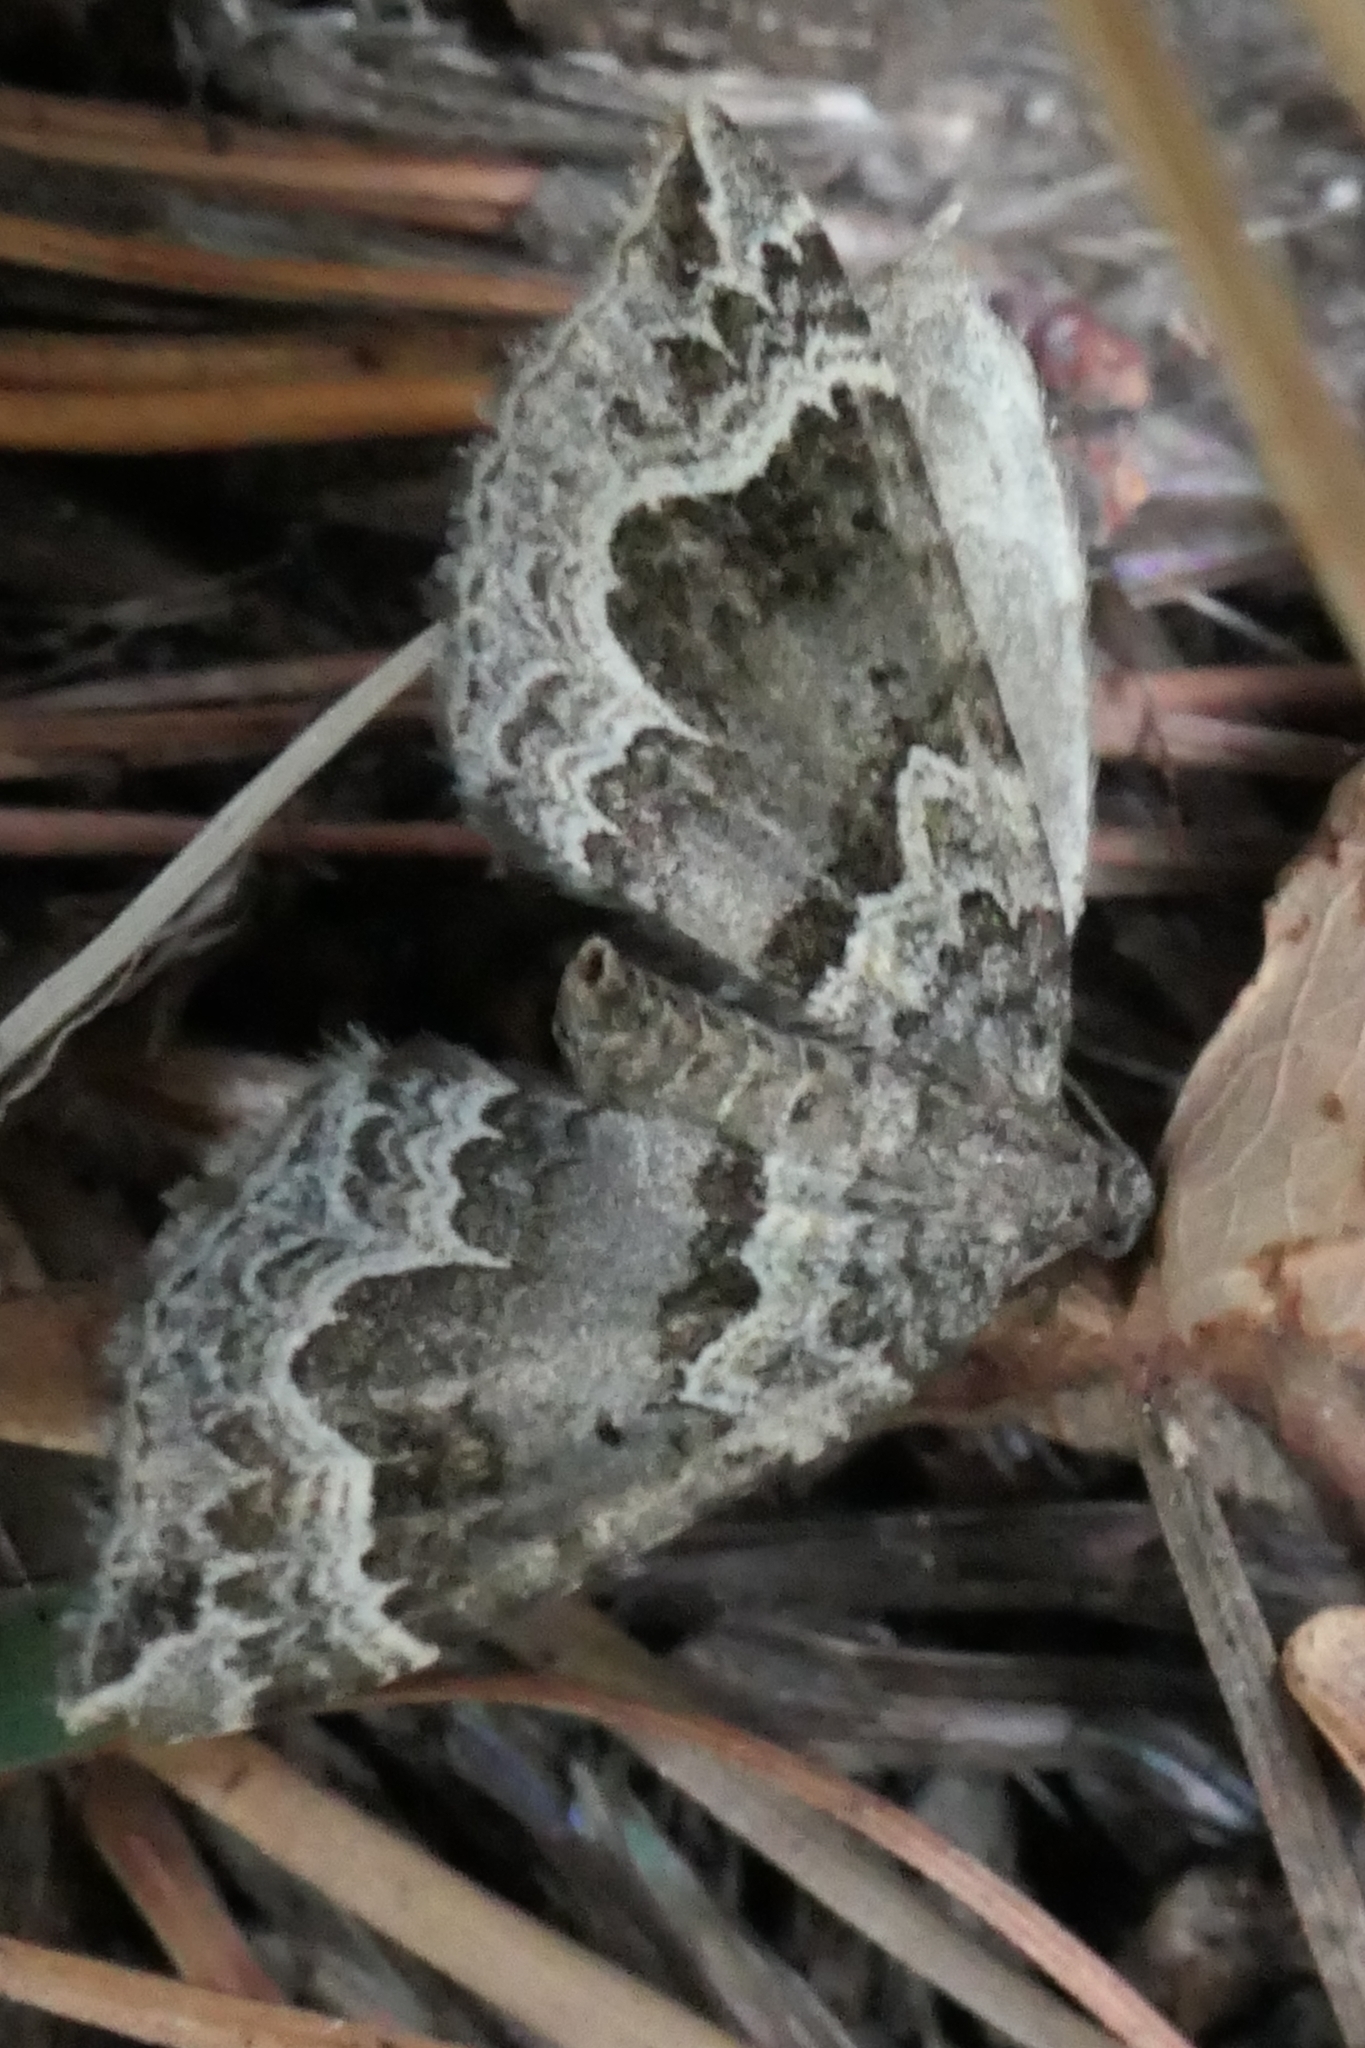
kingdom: Animalia
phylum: Arthropoda
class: Insecta
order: Lepidoptera
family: Geometridae
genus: Hydriomena
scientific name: Hydriomena rixata
